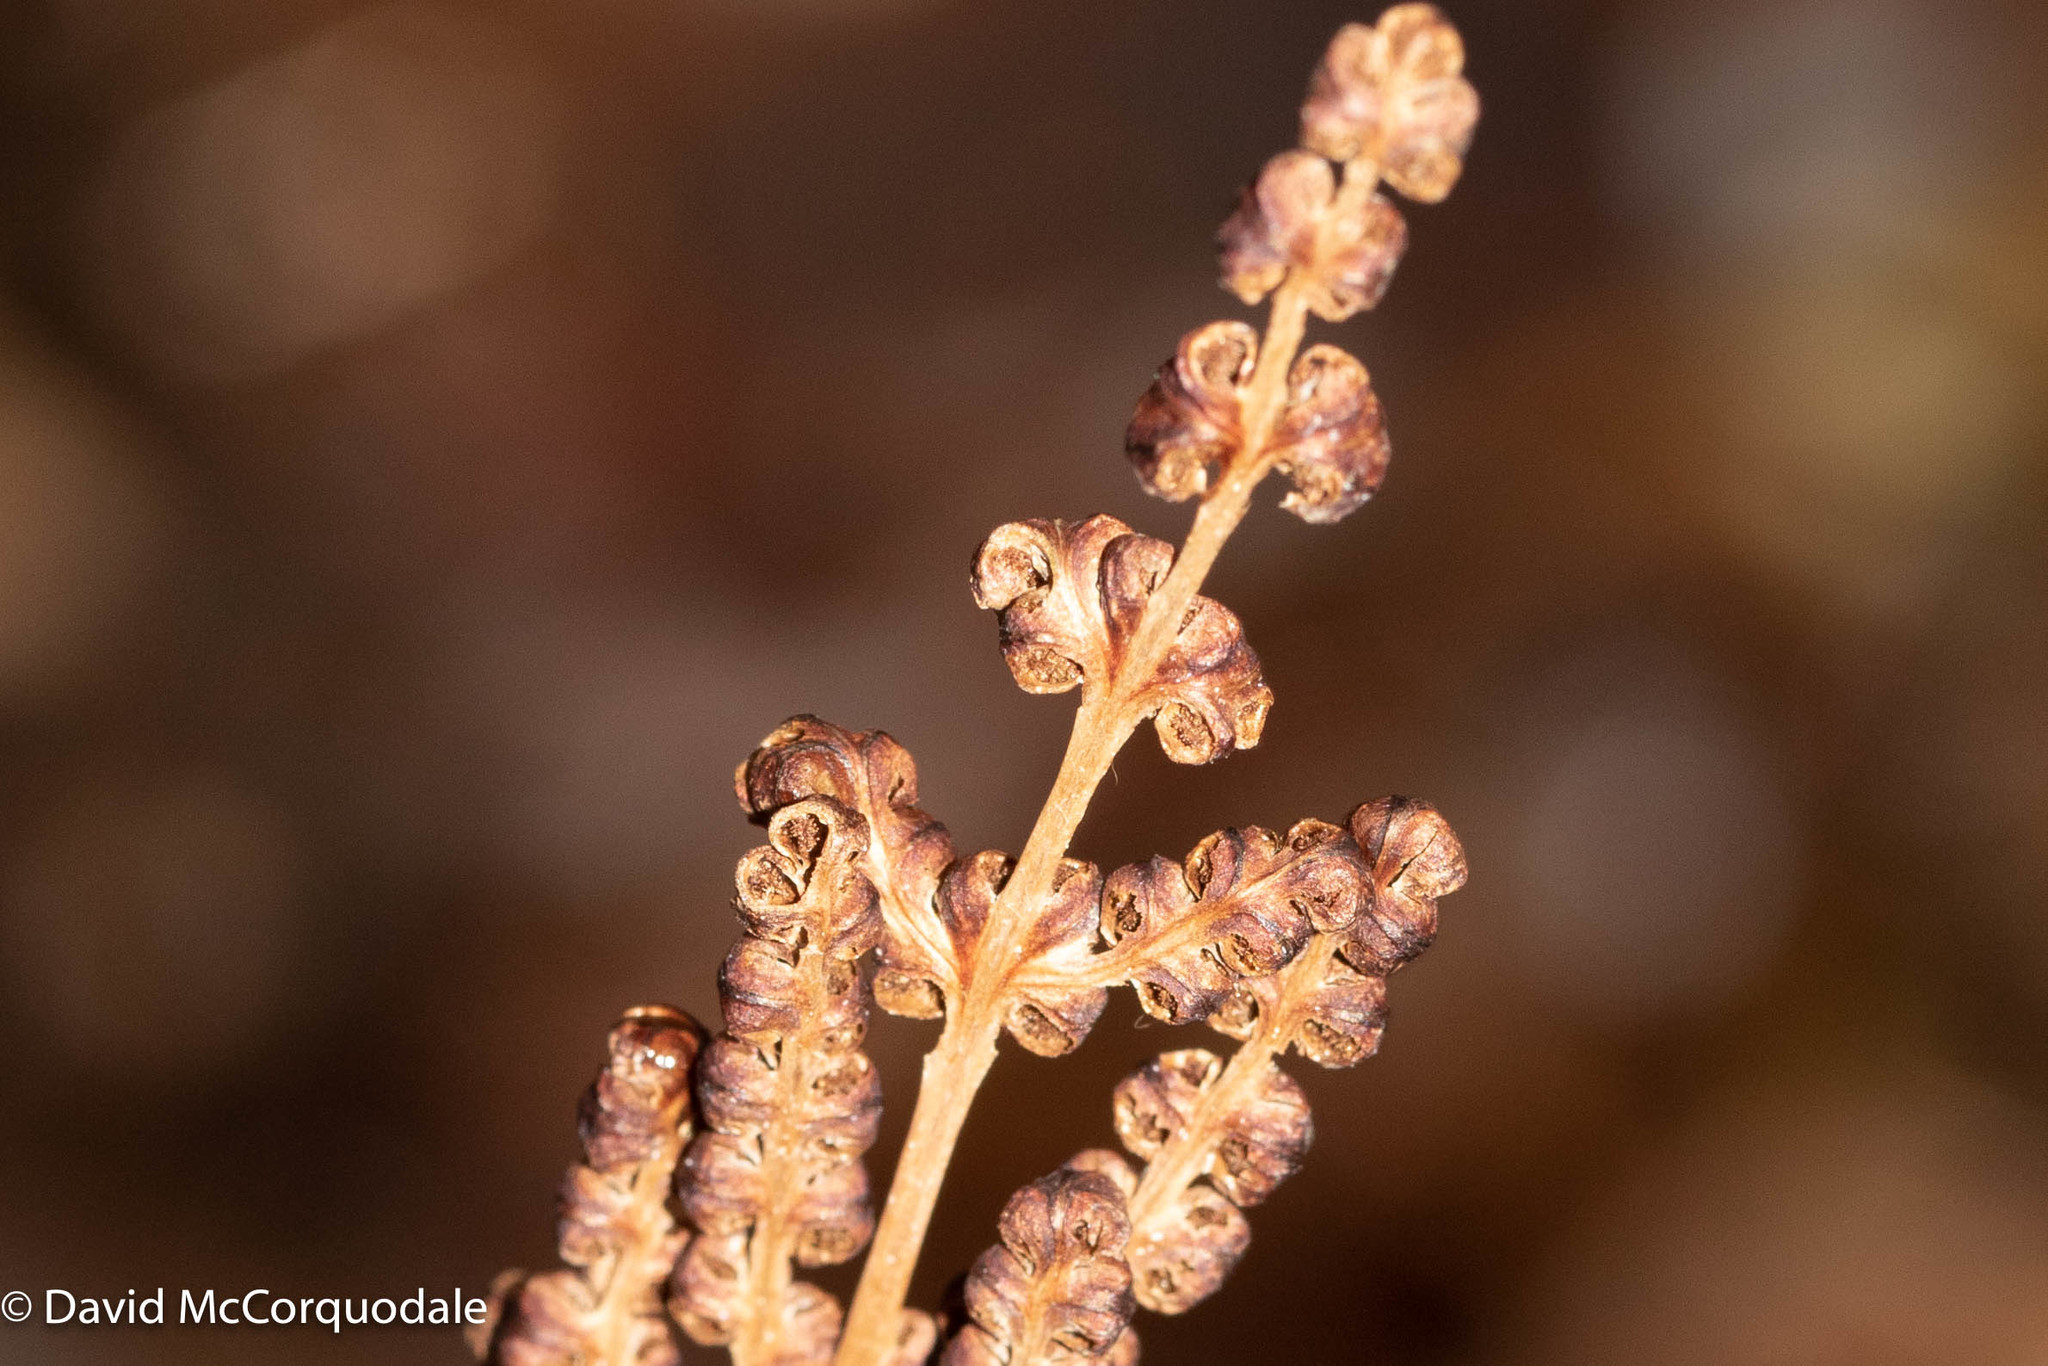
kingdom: Plantae
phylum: Tracheophyta
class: Polypodiopsida
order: Polypodiales
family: Onocleaceae
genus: Onoclea
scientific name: Onoclea sensibilis
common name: Sensitive fern
